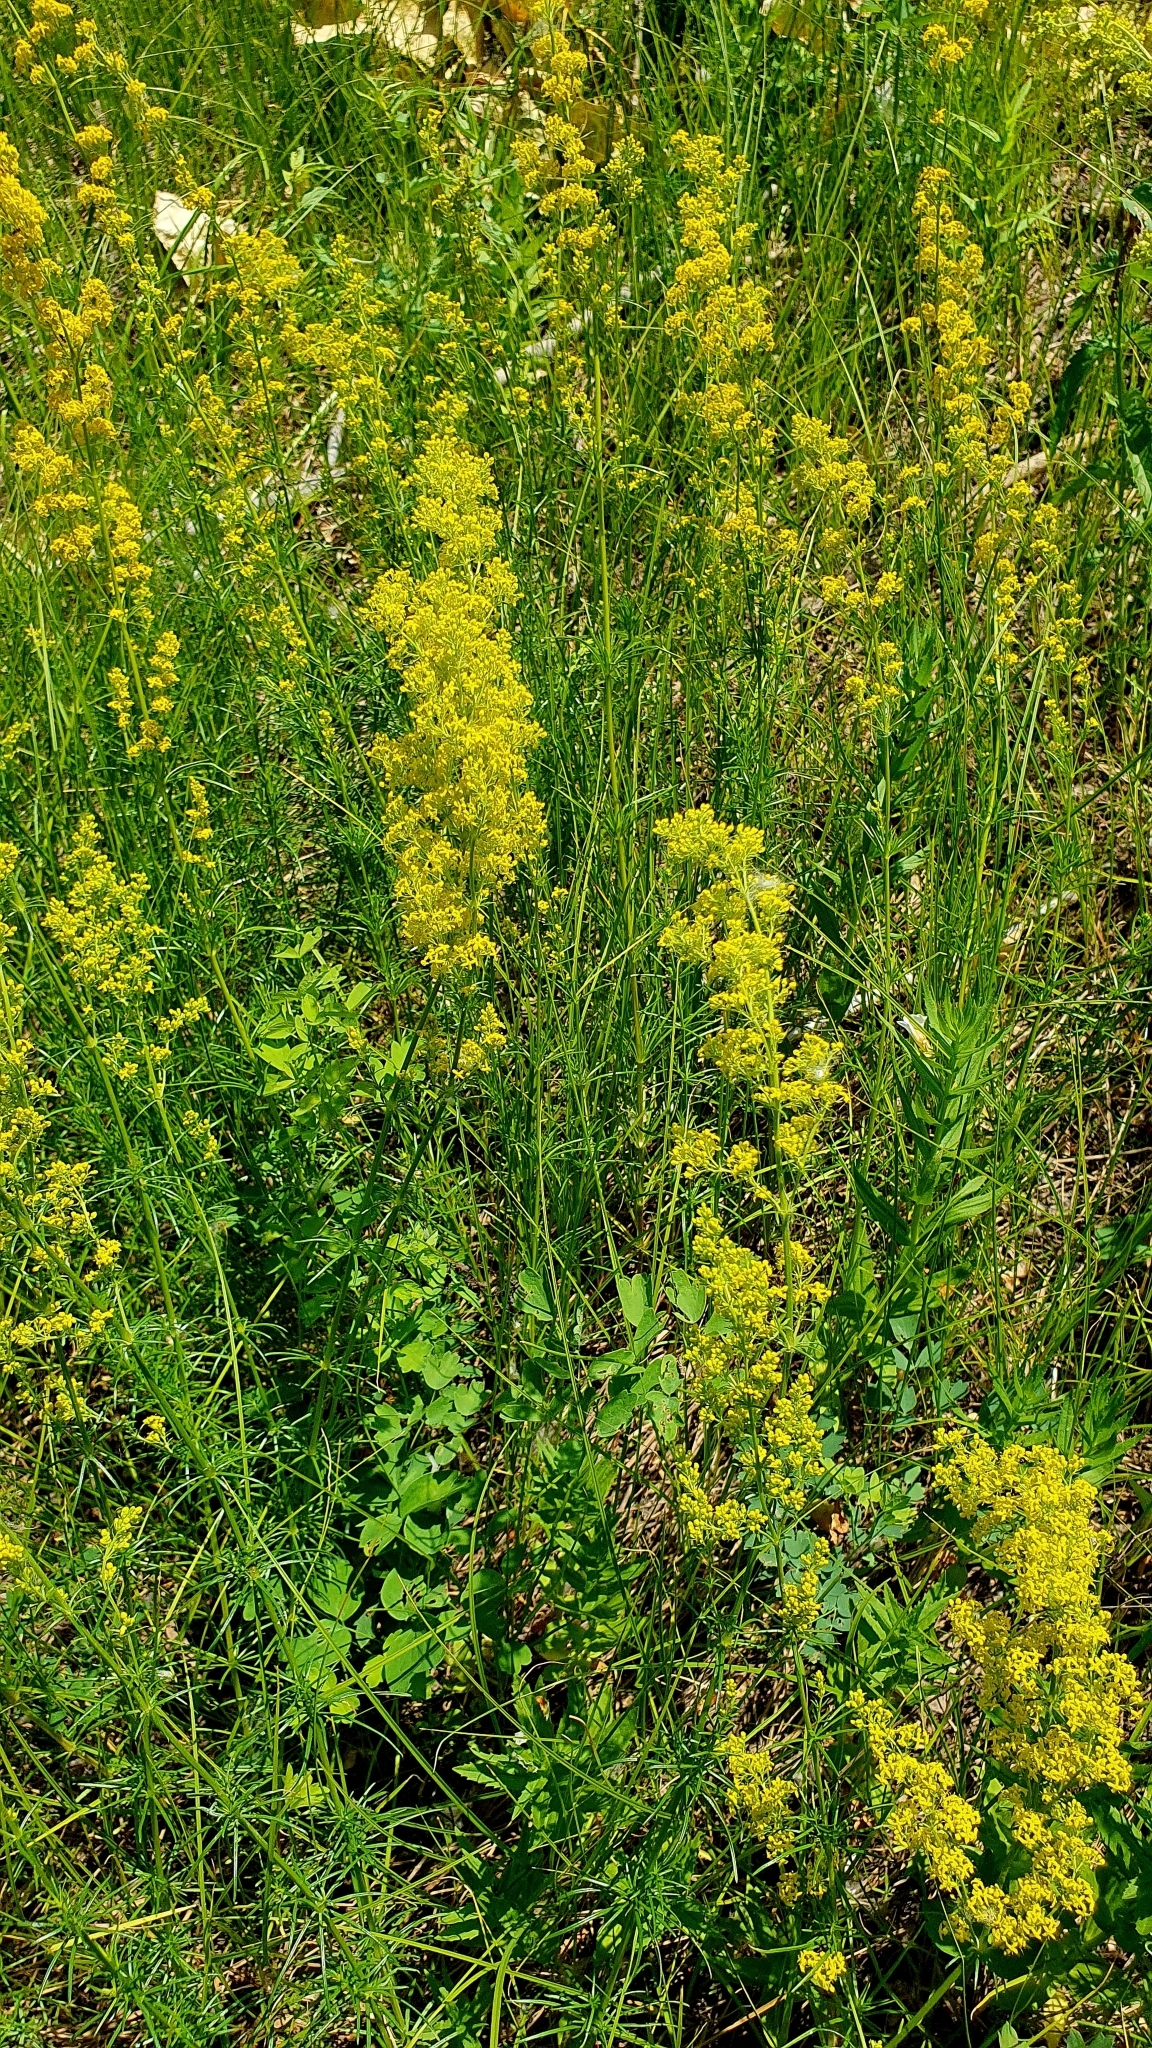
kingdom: Plantae
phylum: Tracheophyta
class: Magnoliopsida
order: Gentianales
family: Rubiaceae
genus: Galium
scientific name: Galium verum
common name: Lady's bedstraw
